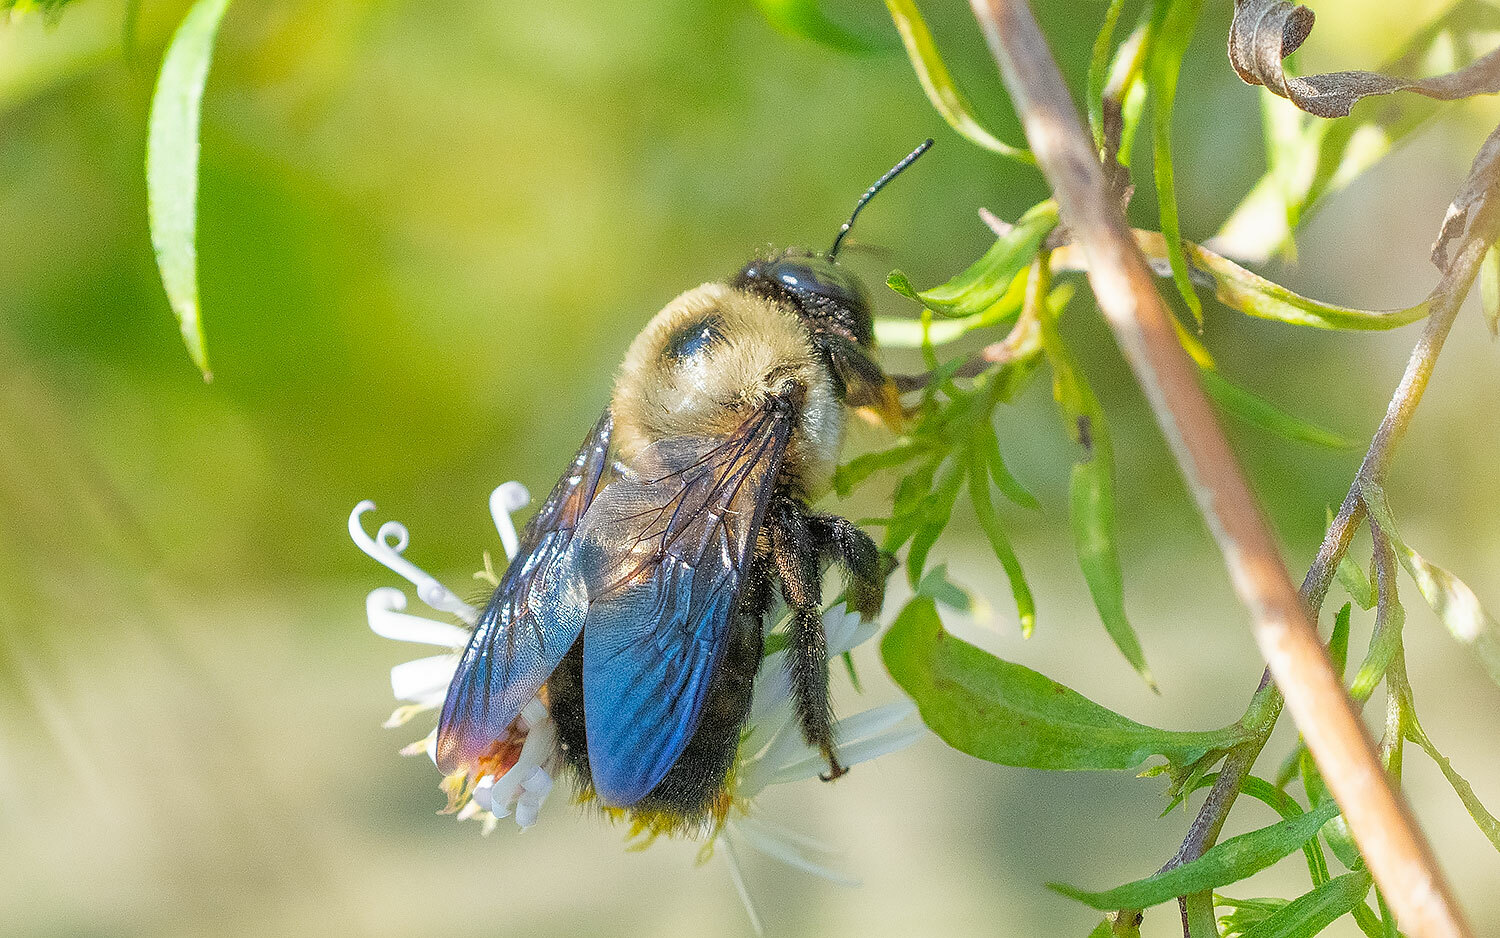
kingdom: Animalia
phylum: Arthropoda
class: Insecta
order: Hymenoptera
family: Apidae
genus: Xylocopa
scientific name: Xylocopa virginica
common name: Carpenter bee
